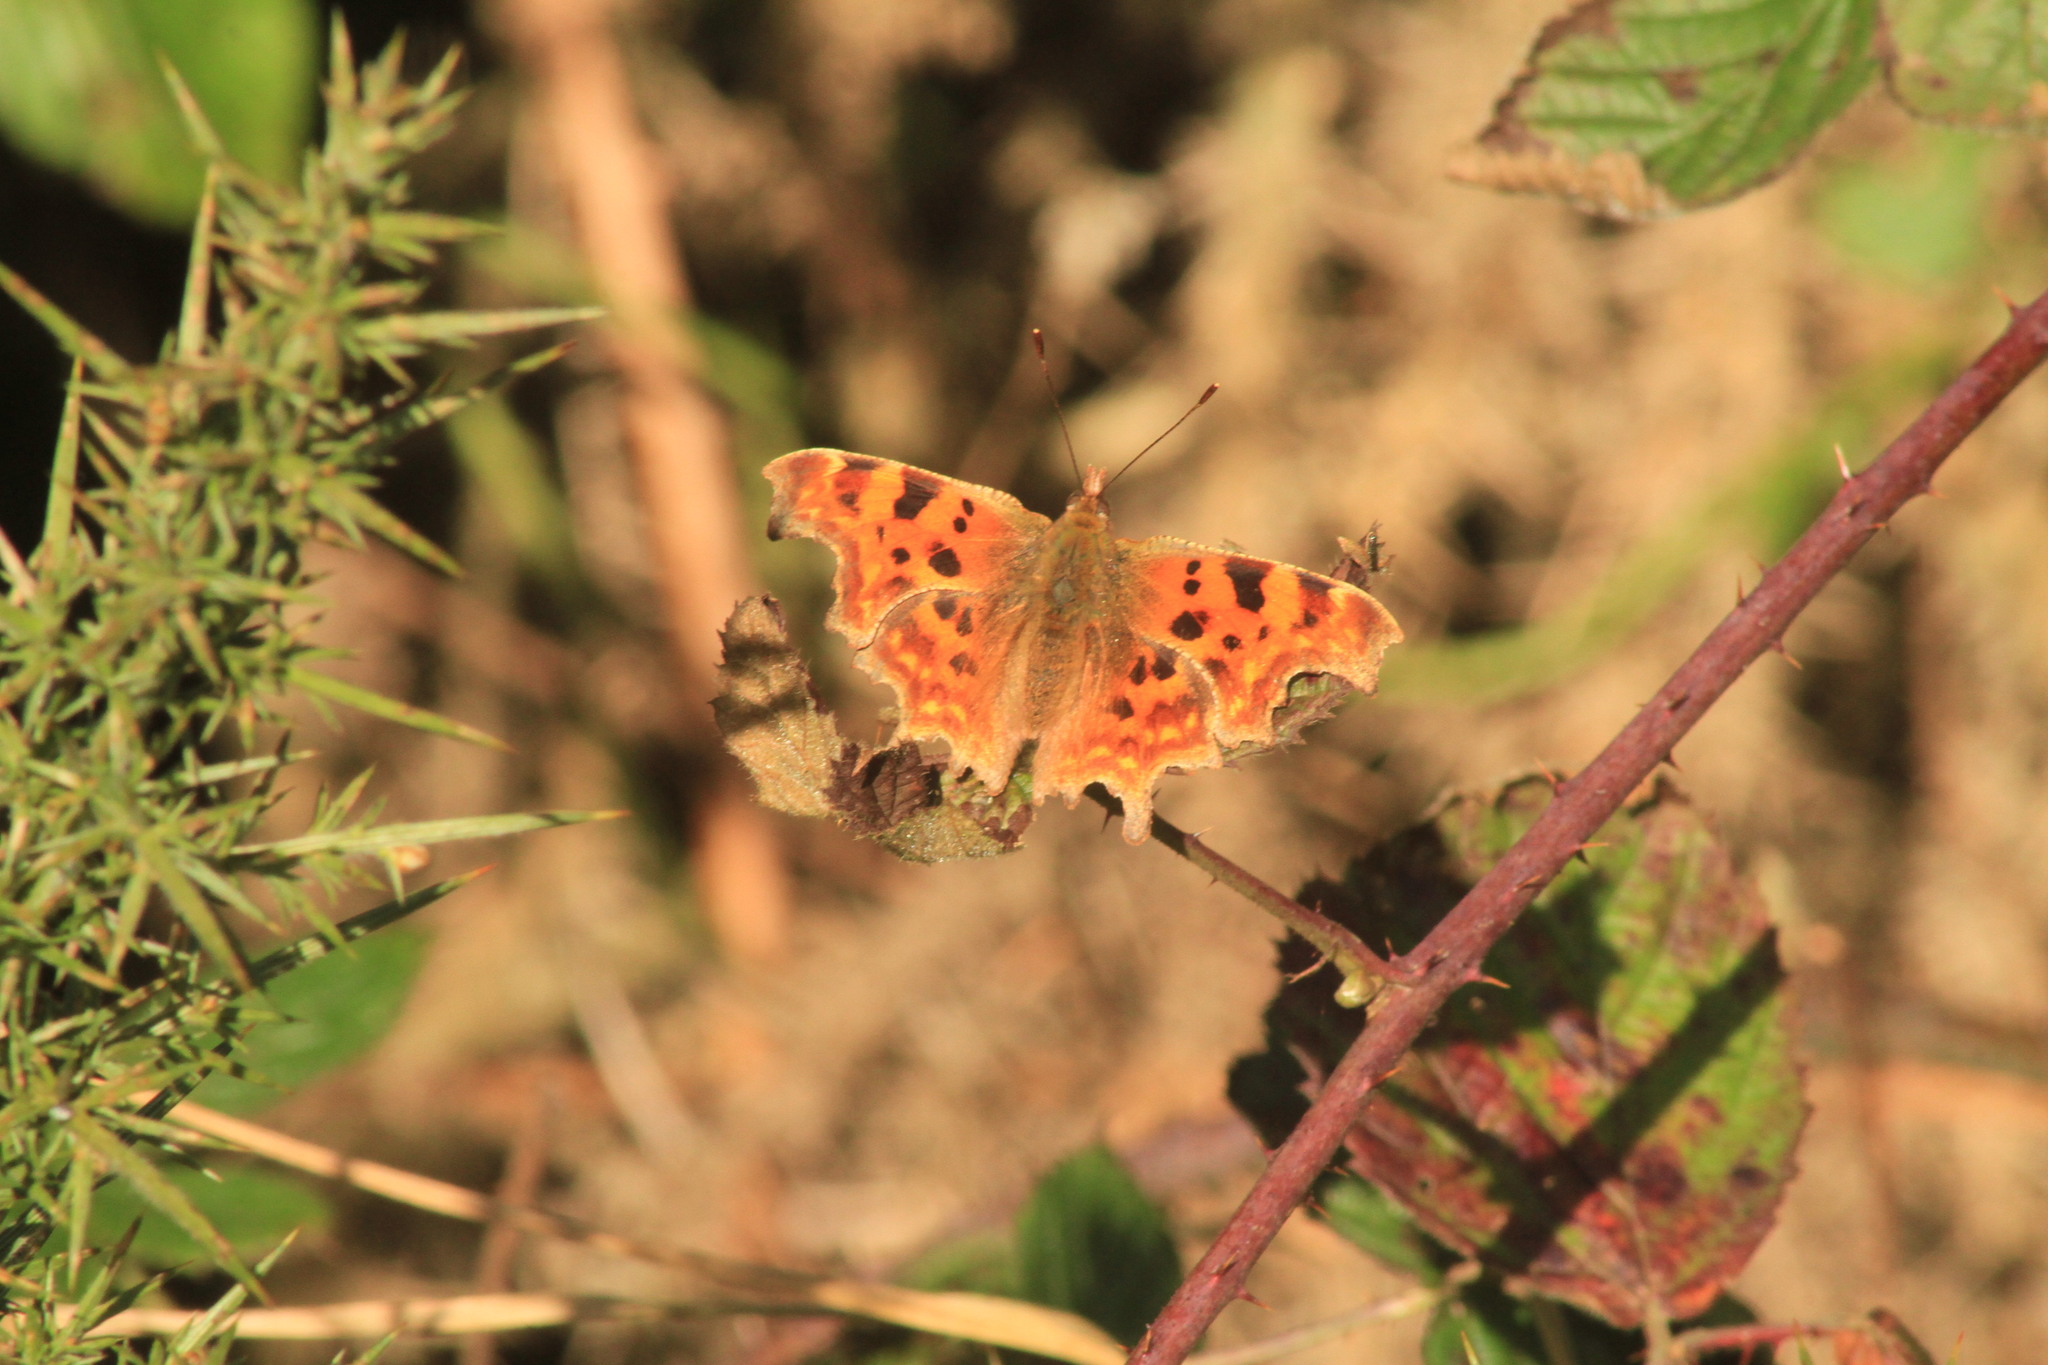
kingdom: Animalia
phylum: Arthropoda
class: Insecta
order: Lepidoptera
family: Nymphalidae
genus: Polygonia
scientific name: Polygonia c-album
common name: Comma
